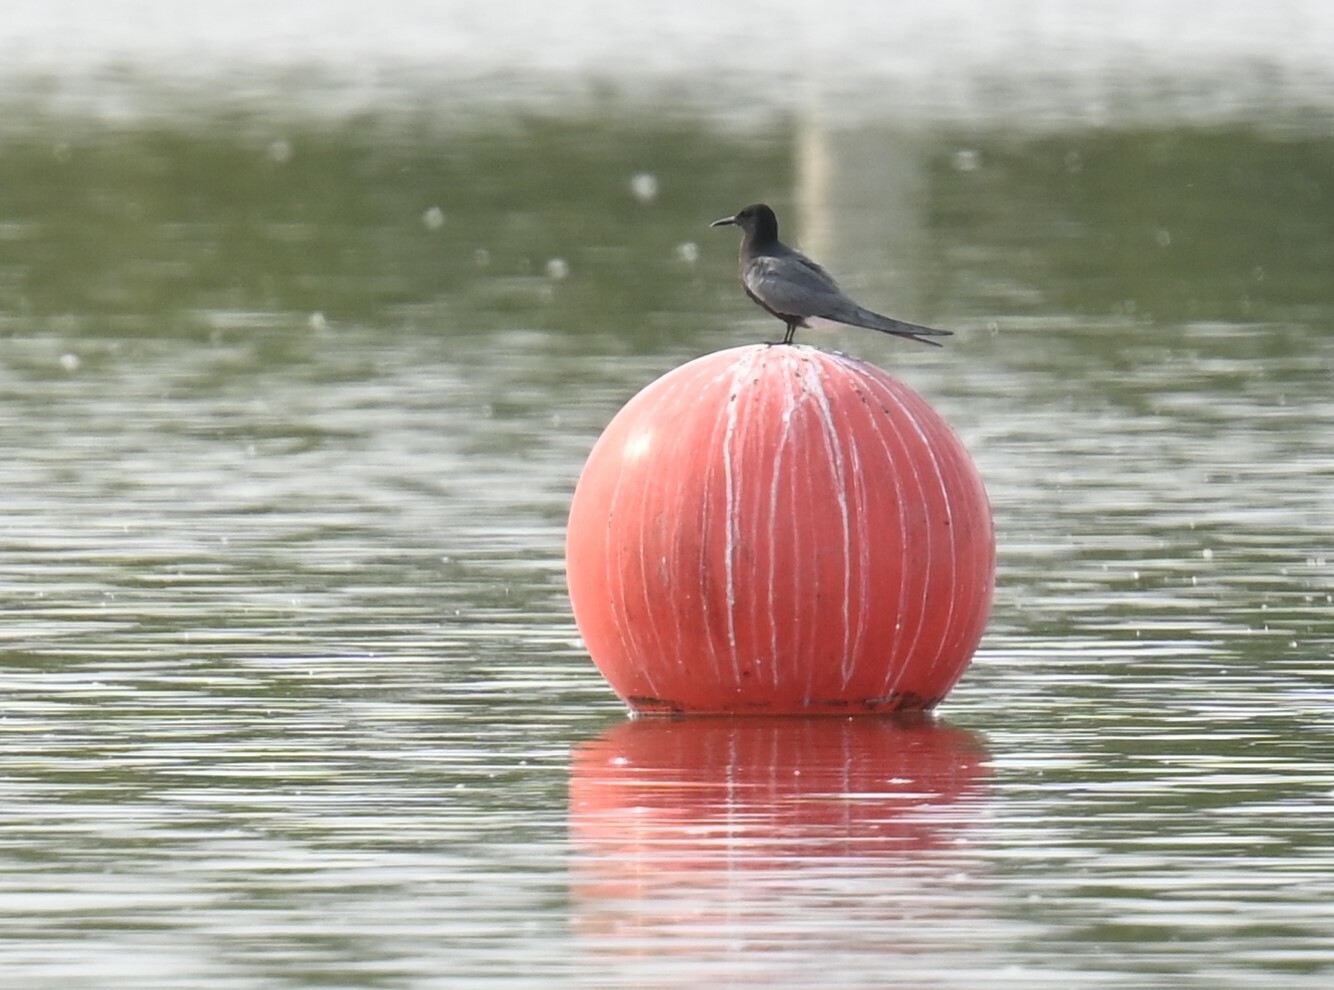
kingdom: Animalia
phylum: Chordata
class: Aves
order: Charadriiformes
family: Laridae
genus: Chlidonias
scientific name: Chlidonias niger
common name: Black tern
